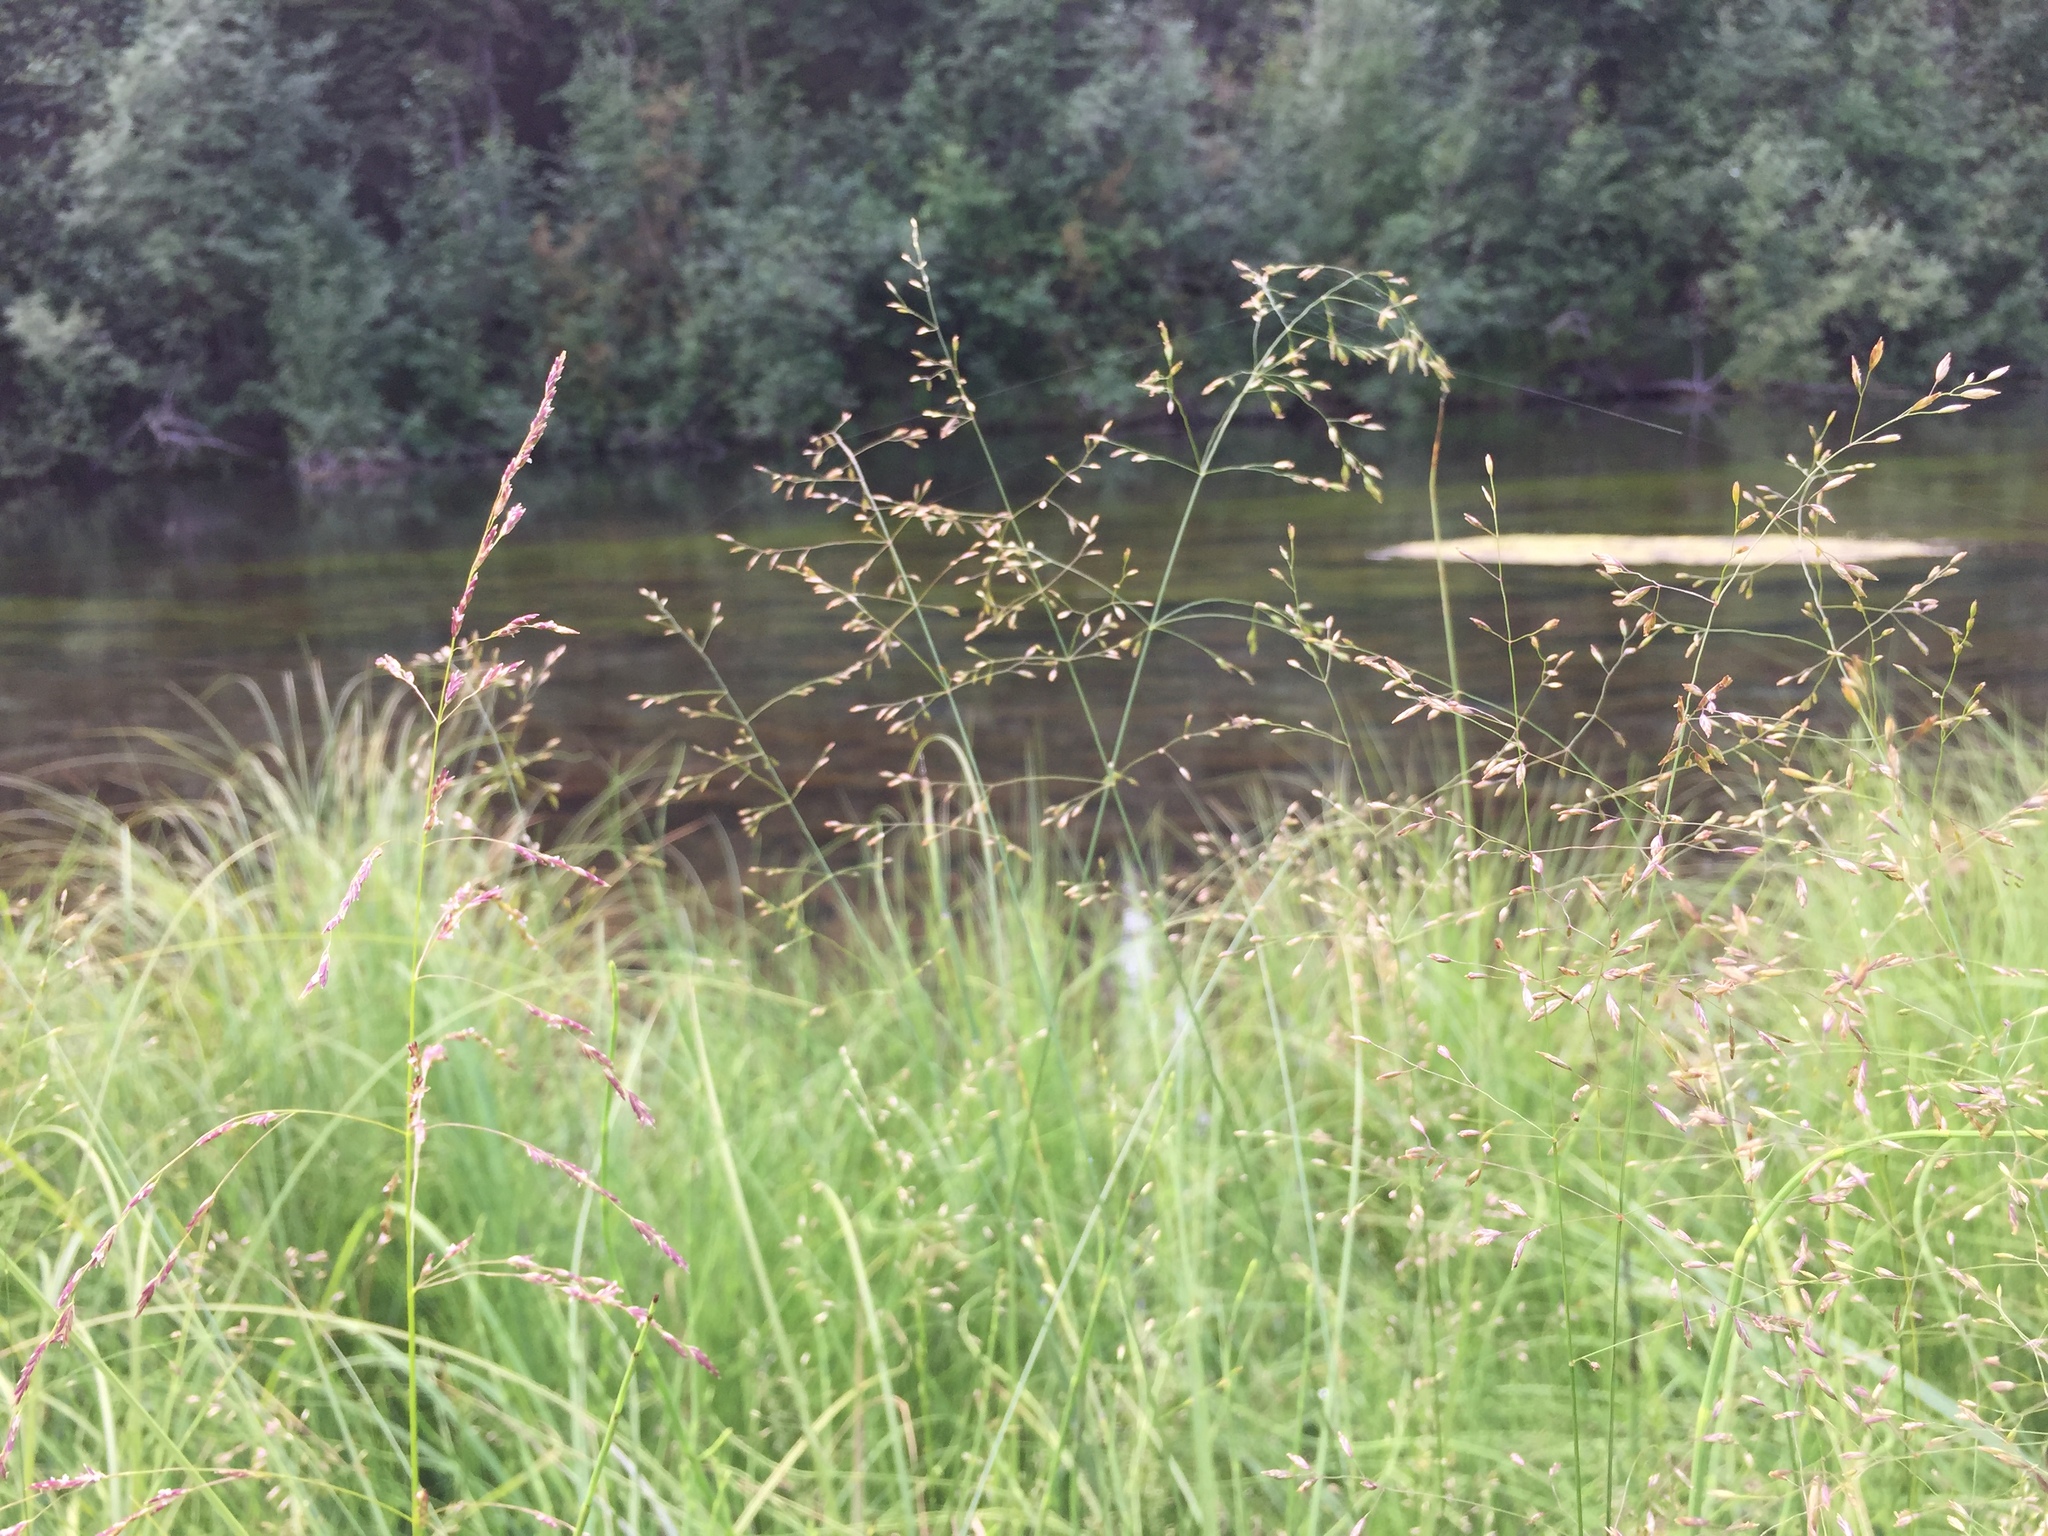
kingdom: Plantae
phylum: Tracheophyta
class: Liliopsida
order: Poales
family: Poaceae
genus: Glyceria
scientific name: Glyceria pulchella
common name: Mackenzie valley mannagrass
